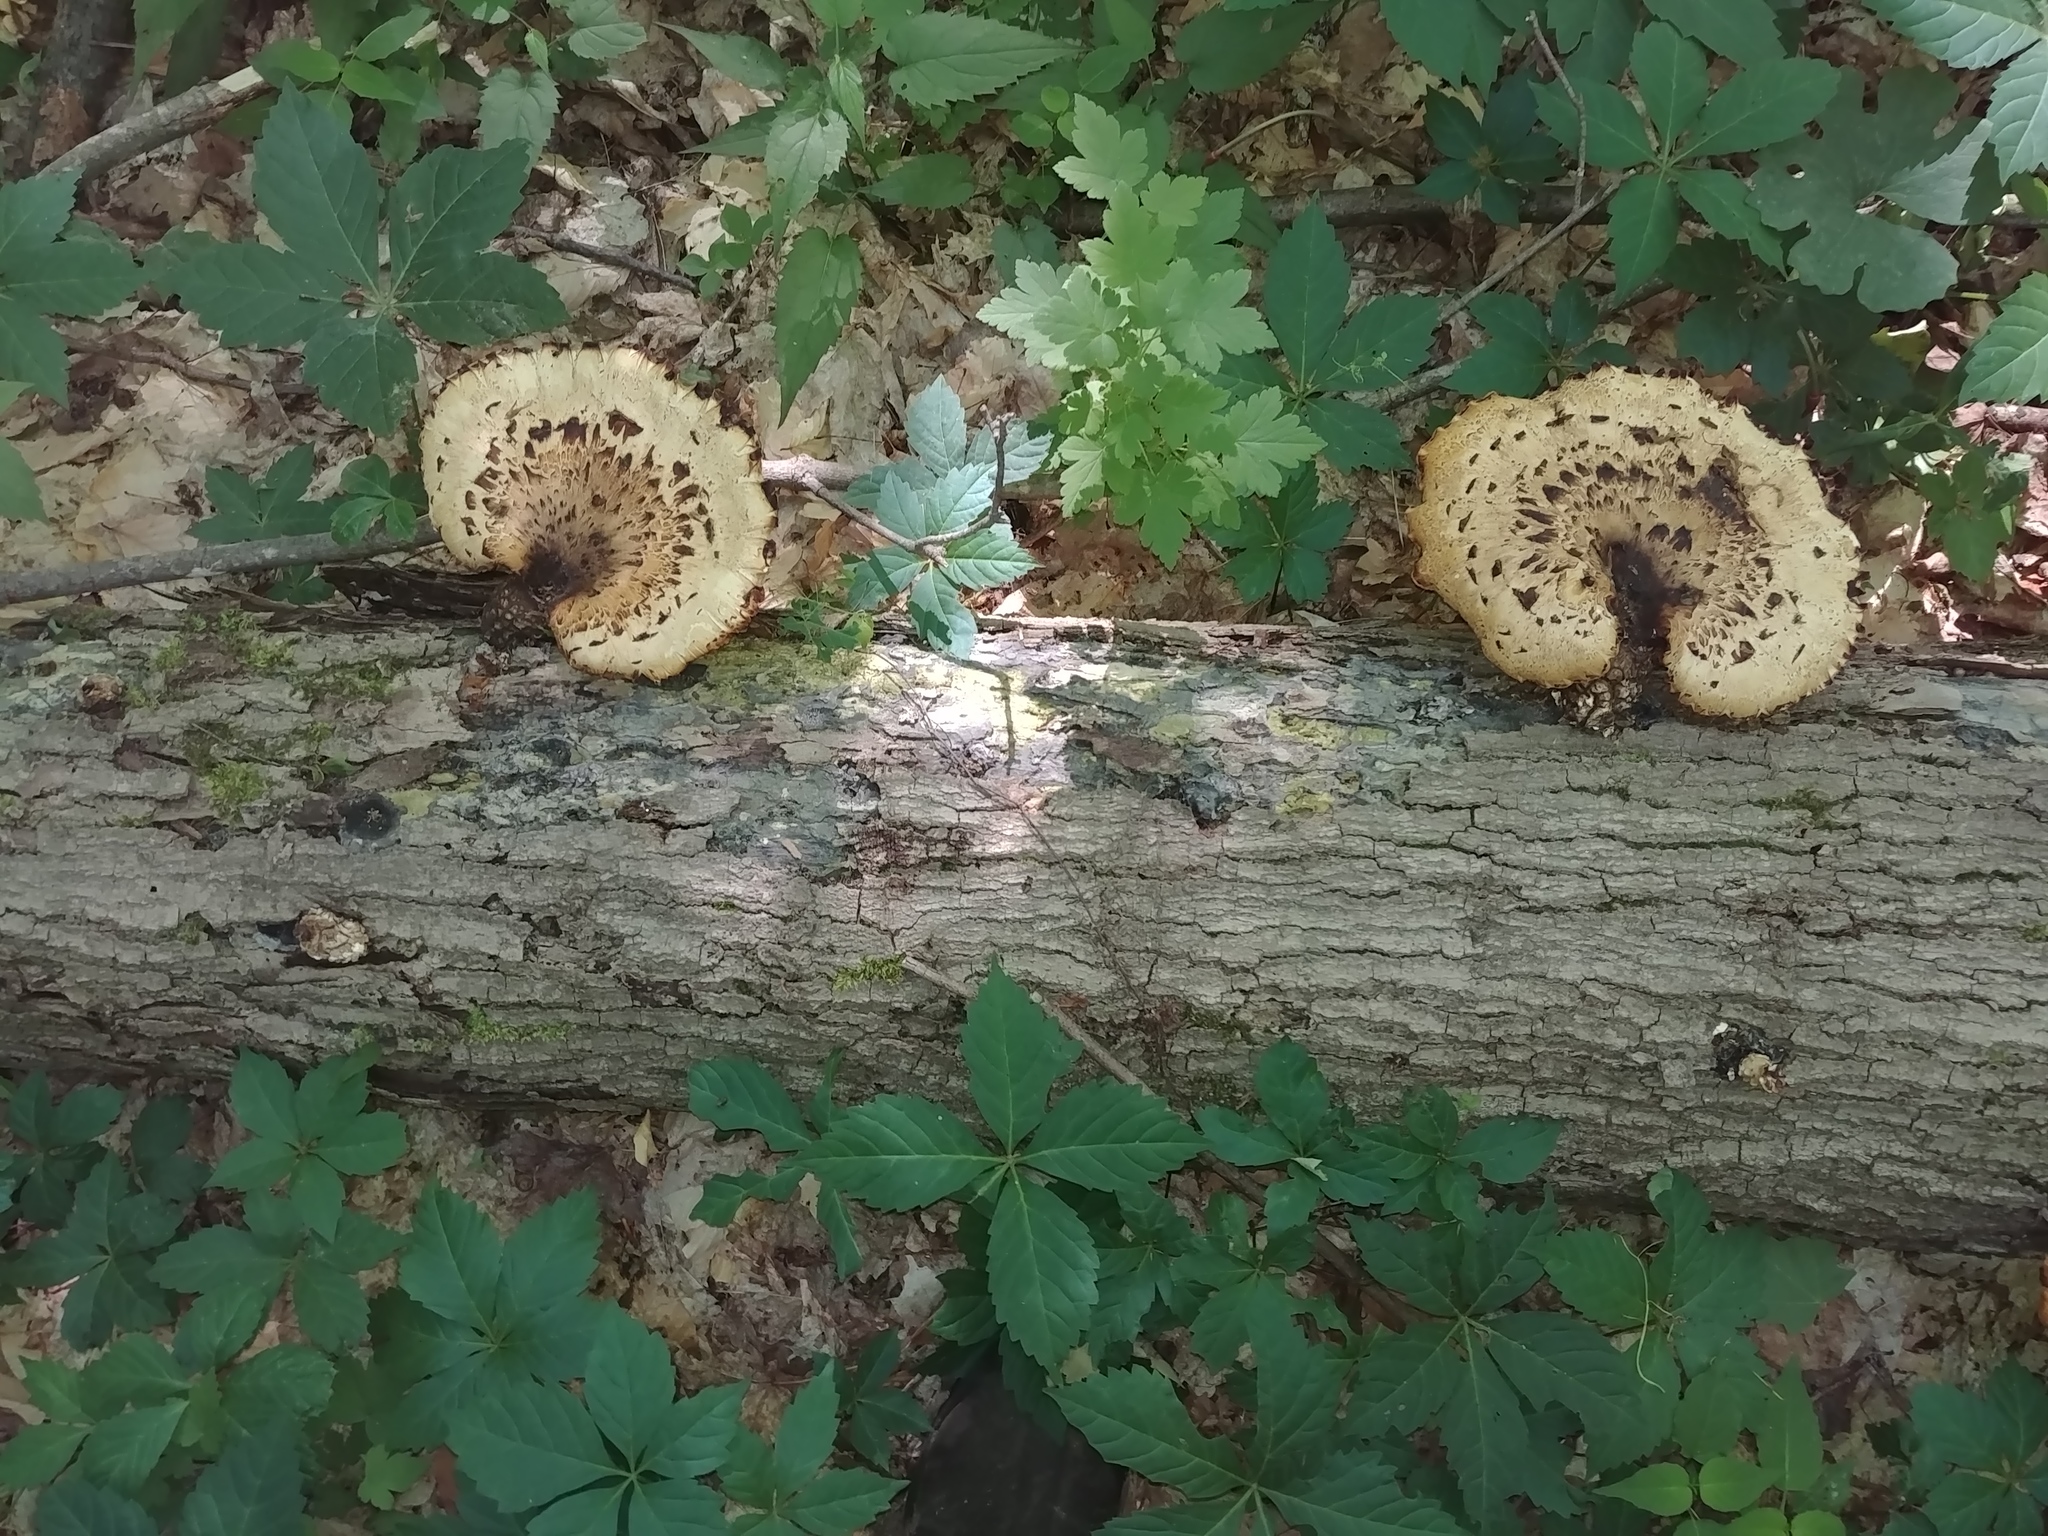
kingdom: Fungi
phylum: Basidiomycota
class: Agaricomycetes
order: Polyporales
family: Polyporaceae
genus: Cerioporus
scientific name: Cerioporus squamosus
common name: Dryad's saddle
